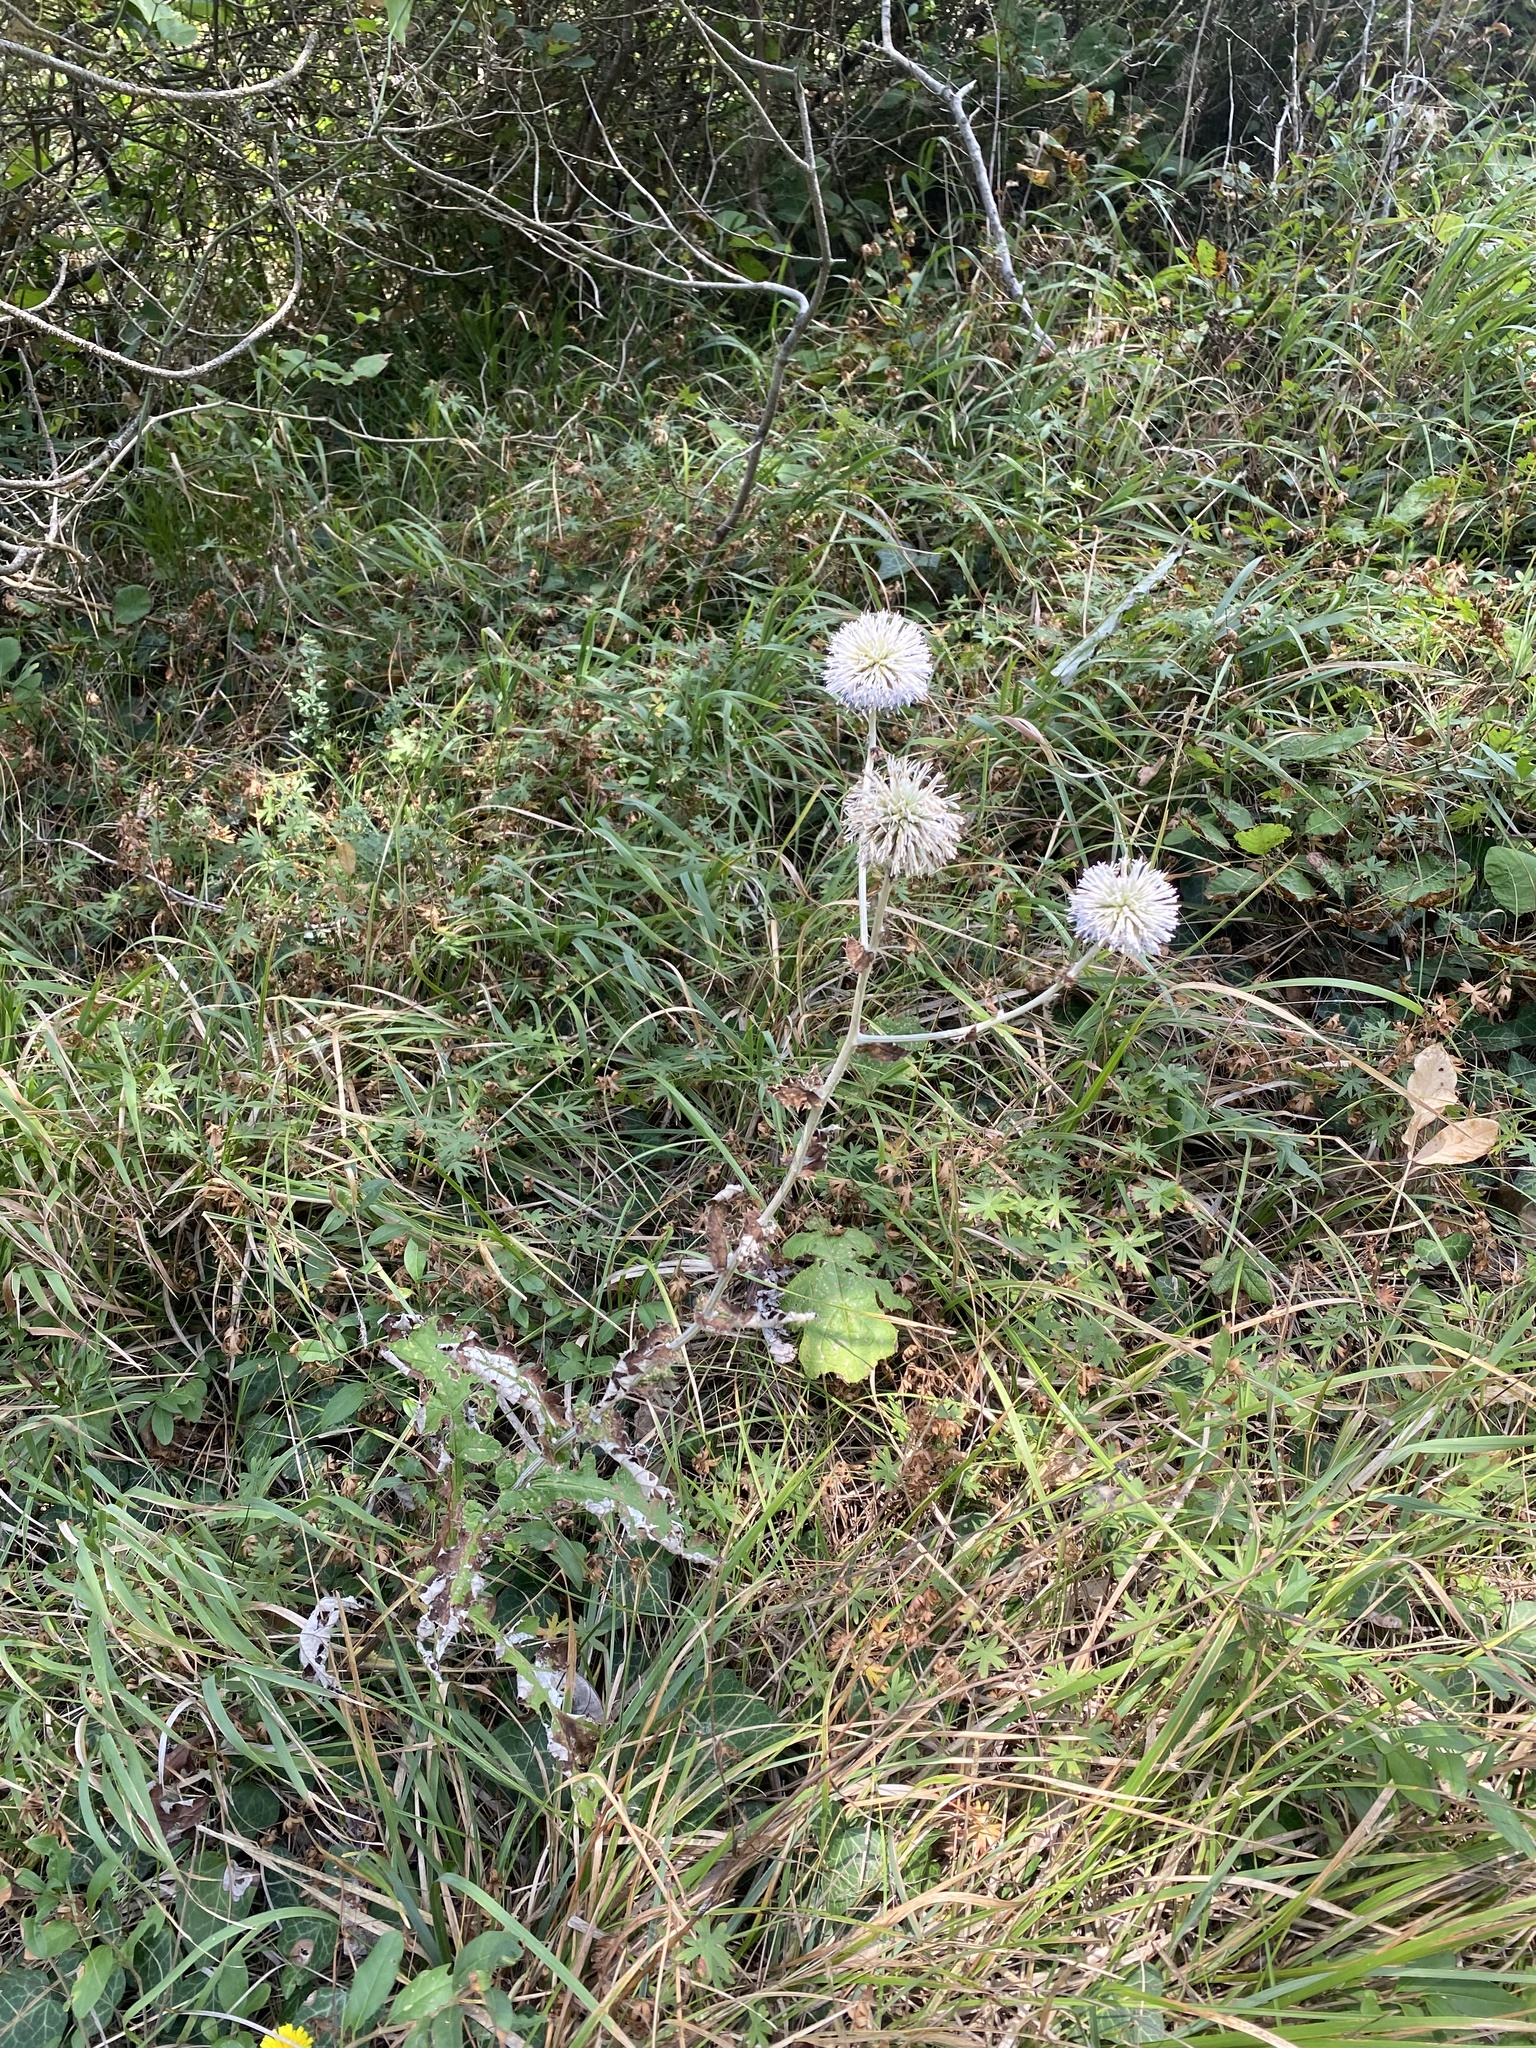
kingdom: Plantae
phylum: Tracheophyta
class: Magnoliopsida
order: Asterales
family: Asteraceae
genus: Echinops
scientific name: Echinops sphaerocephalus
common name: Glandular globe-thistle
